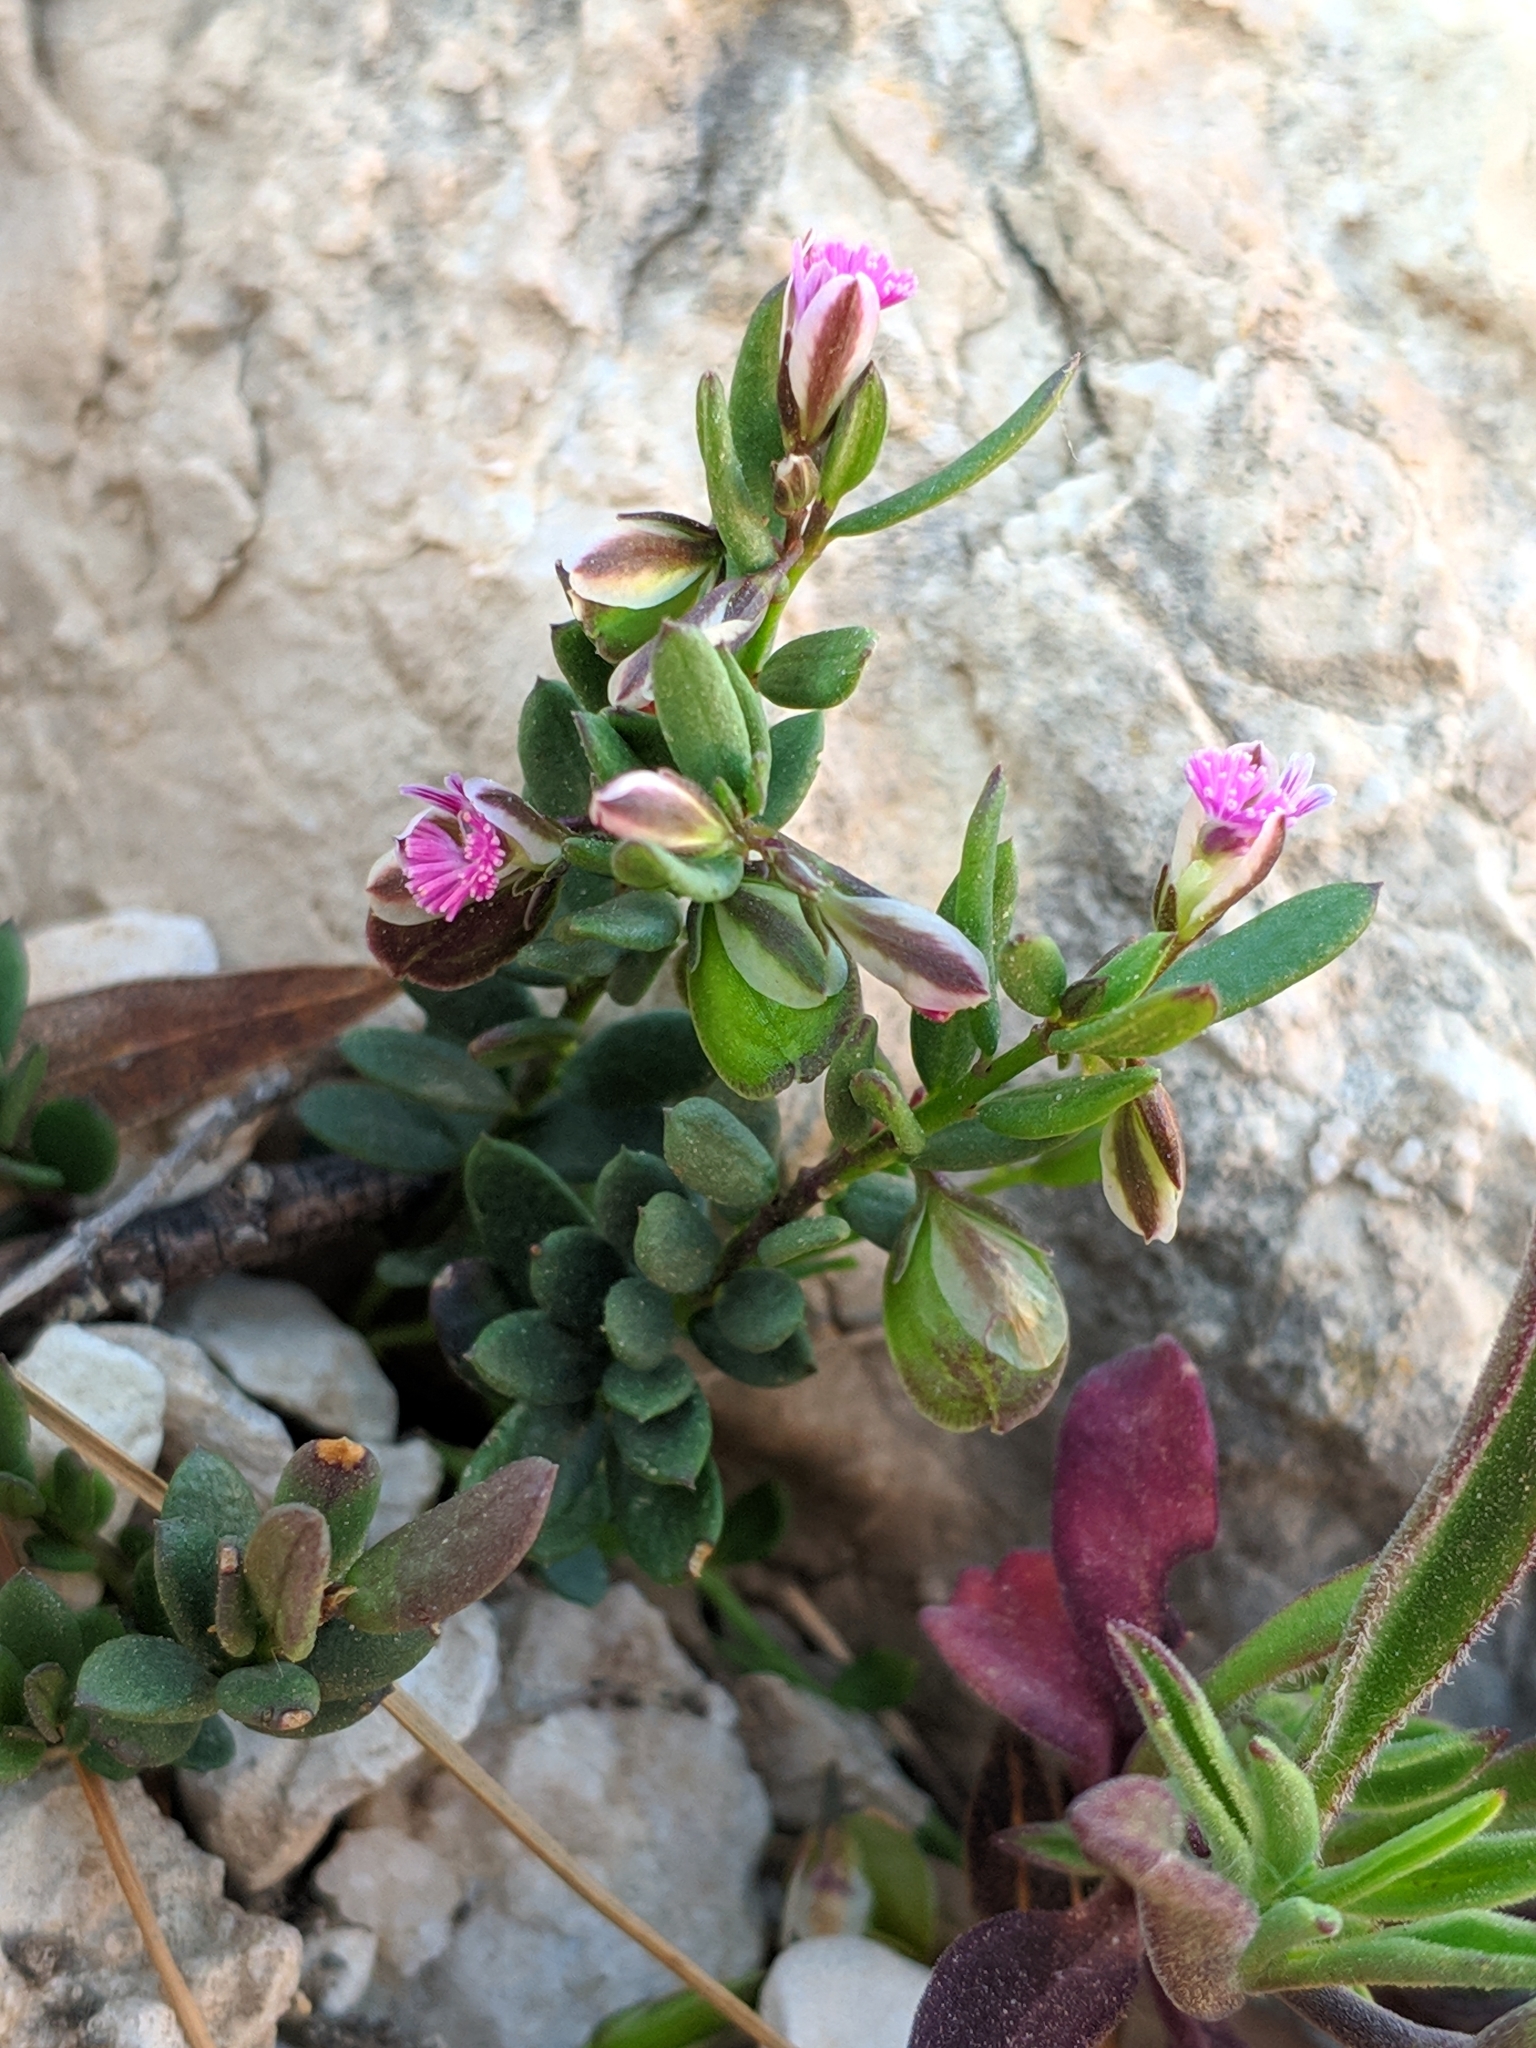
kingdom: Plantae
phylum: Tracheophyta
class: Magnoliopsida
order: Fabales
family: Polygalaceae
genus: Polygala
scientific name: Polygala rupestris
